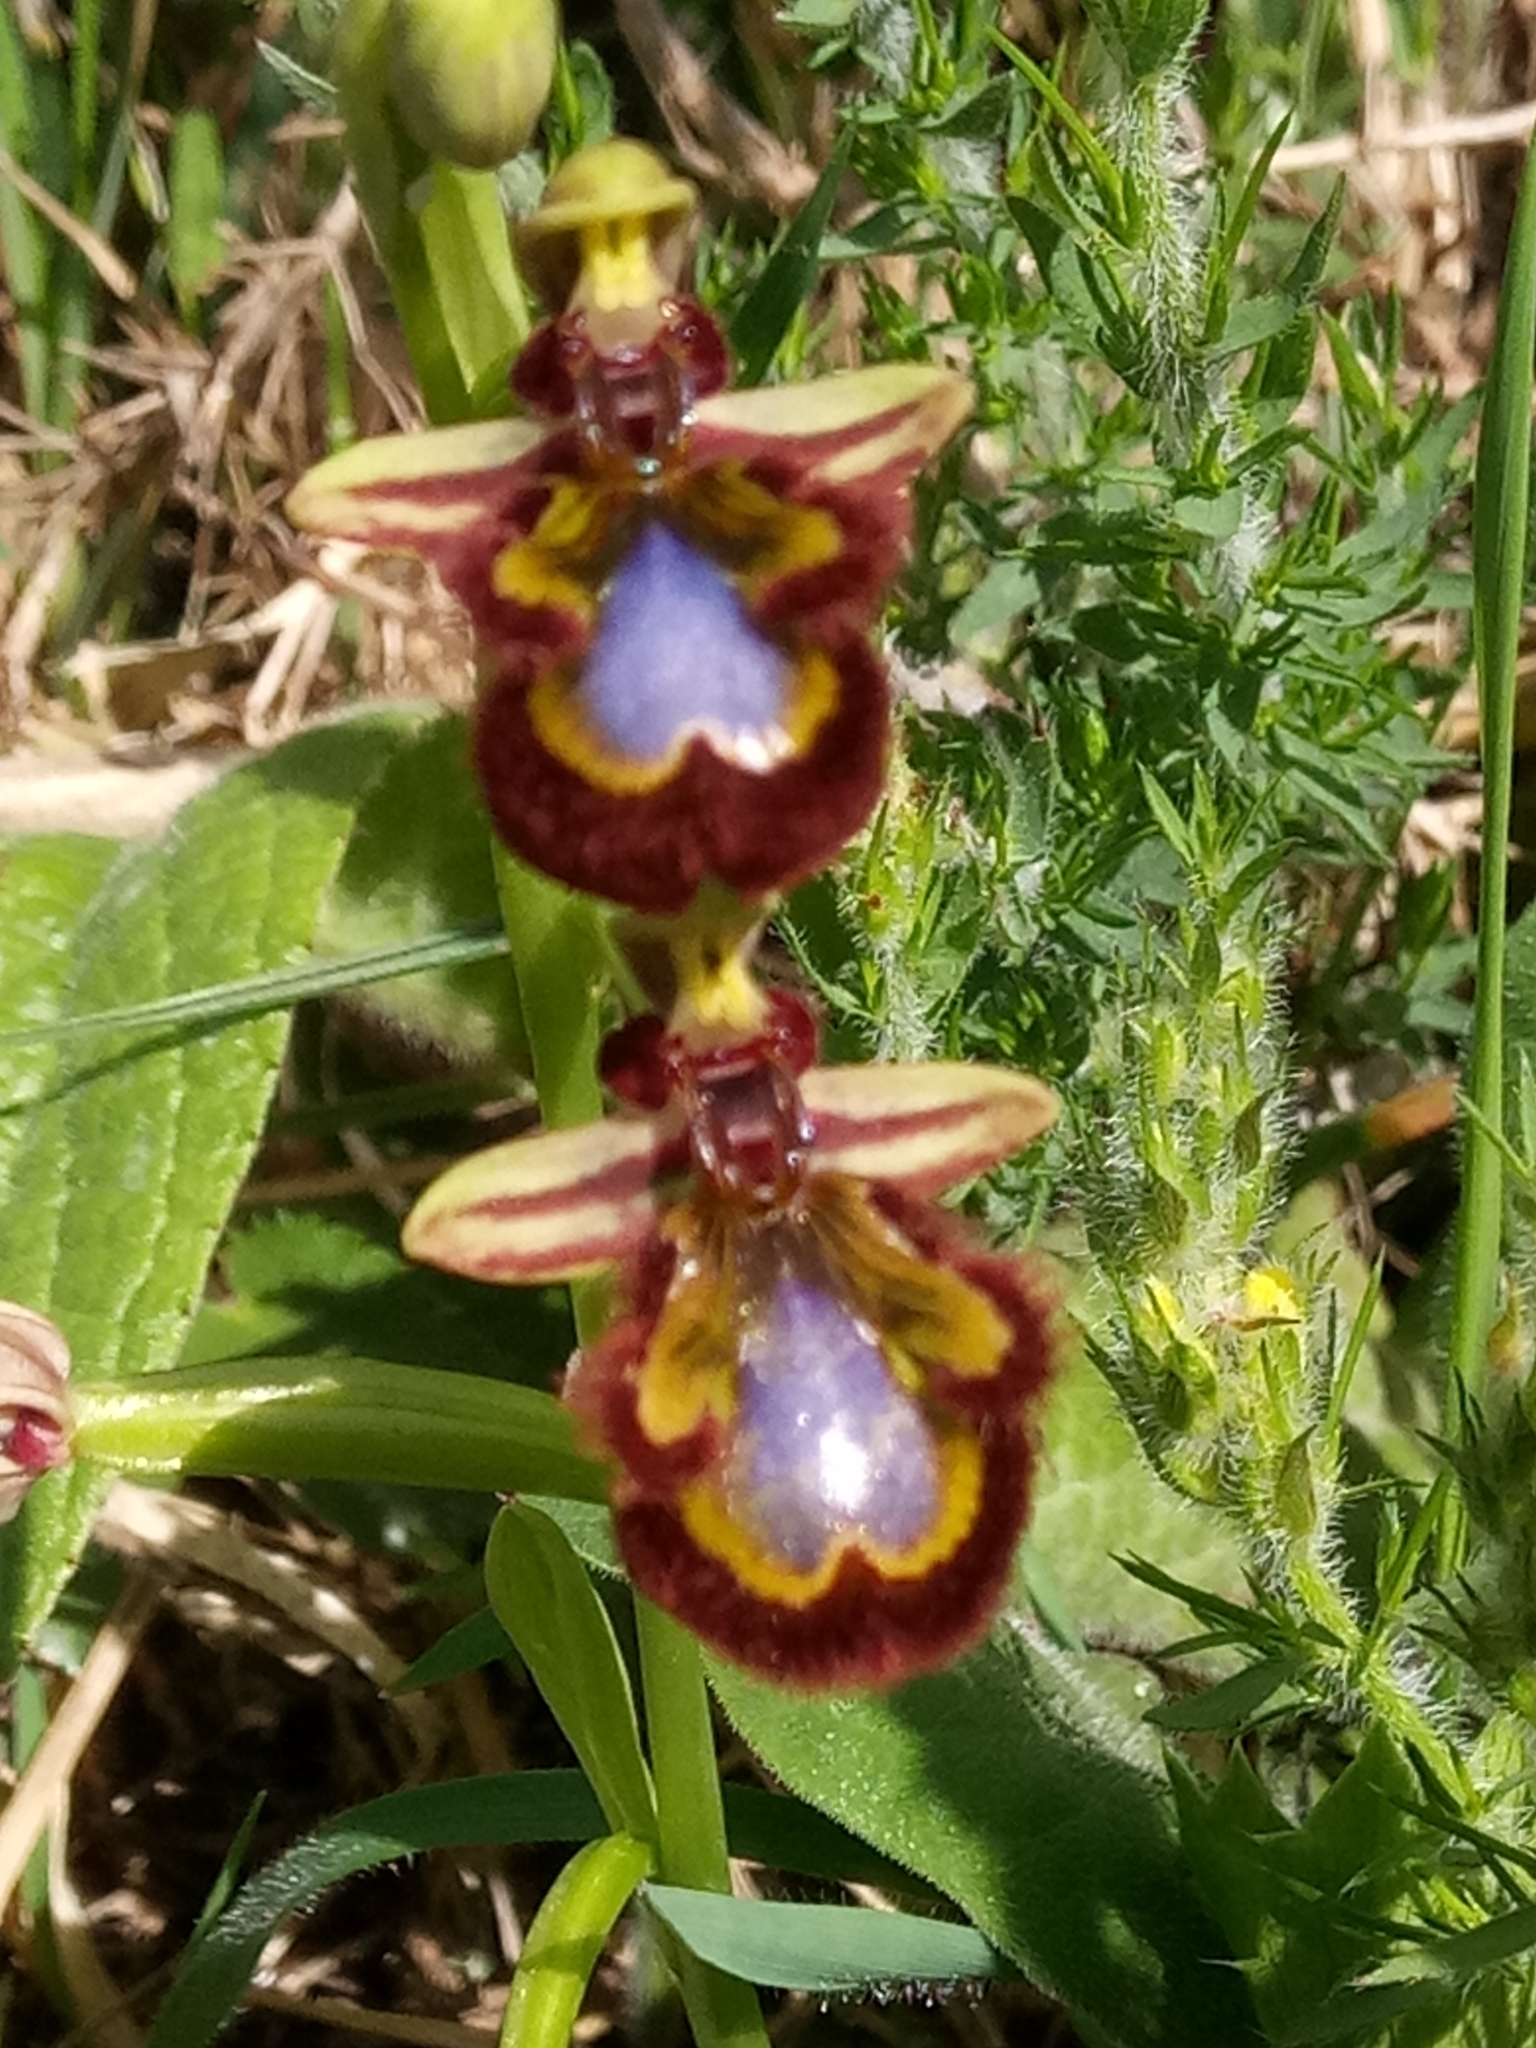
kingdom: Plantae
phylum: Tracheophyta
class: Liliopsida
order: Asparagales
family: Orchidaceae
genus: Ophrys
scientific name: Ophrys speculum
